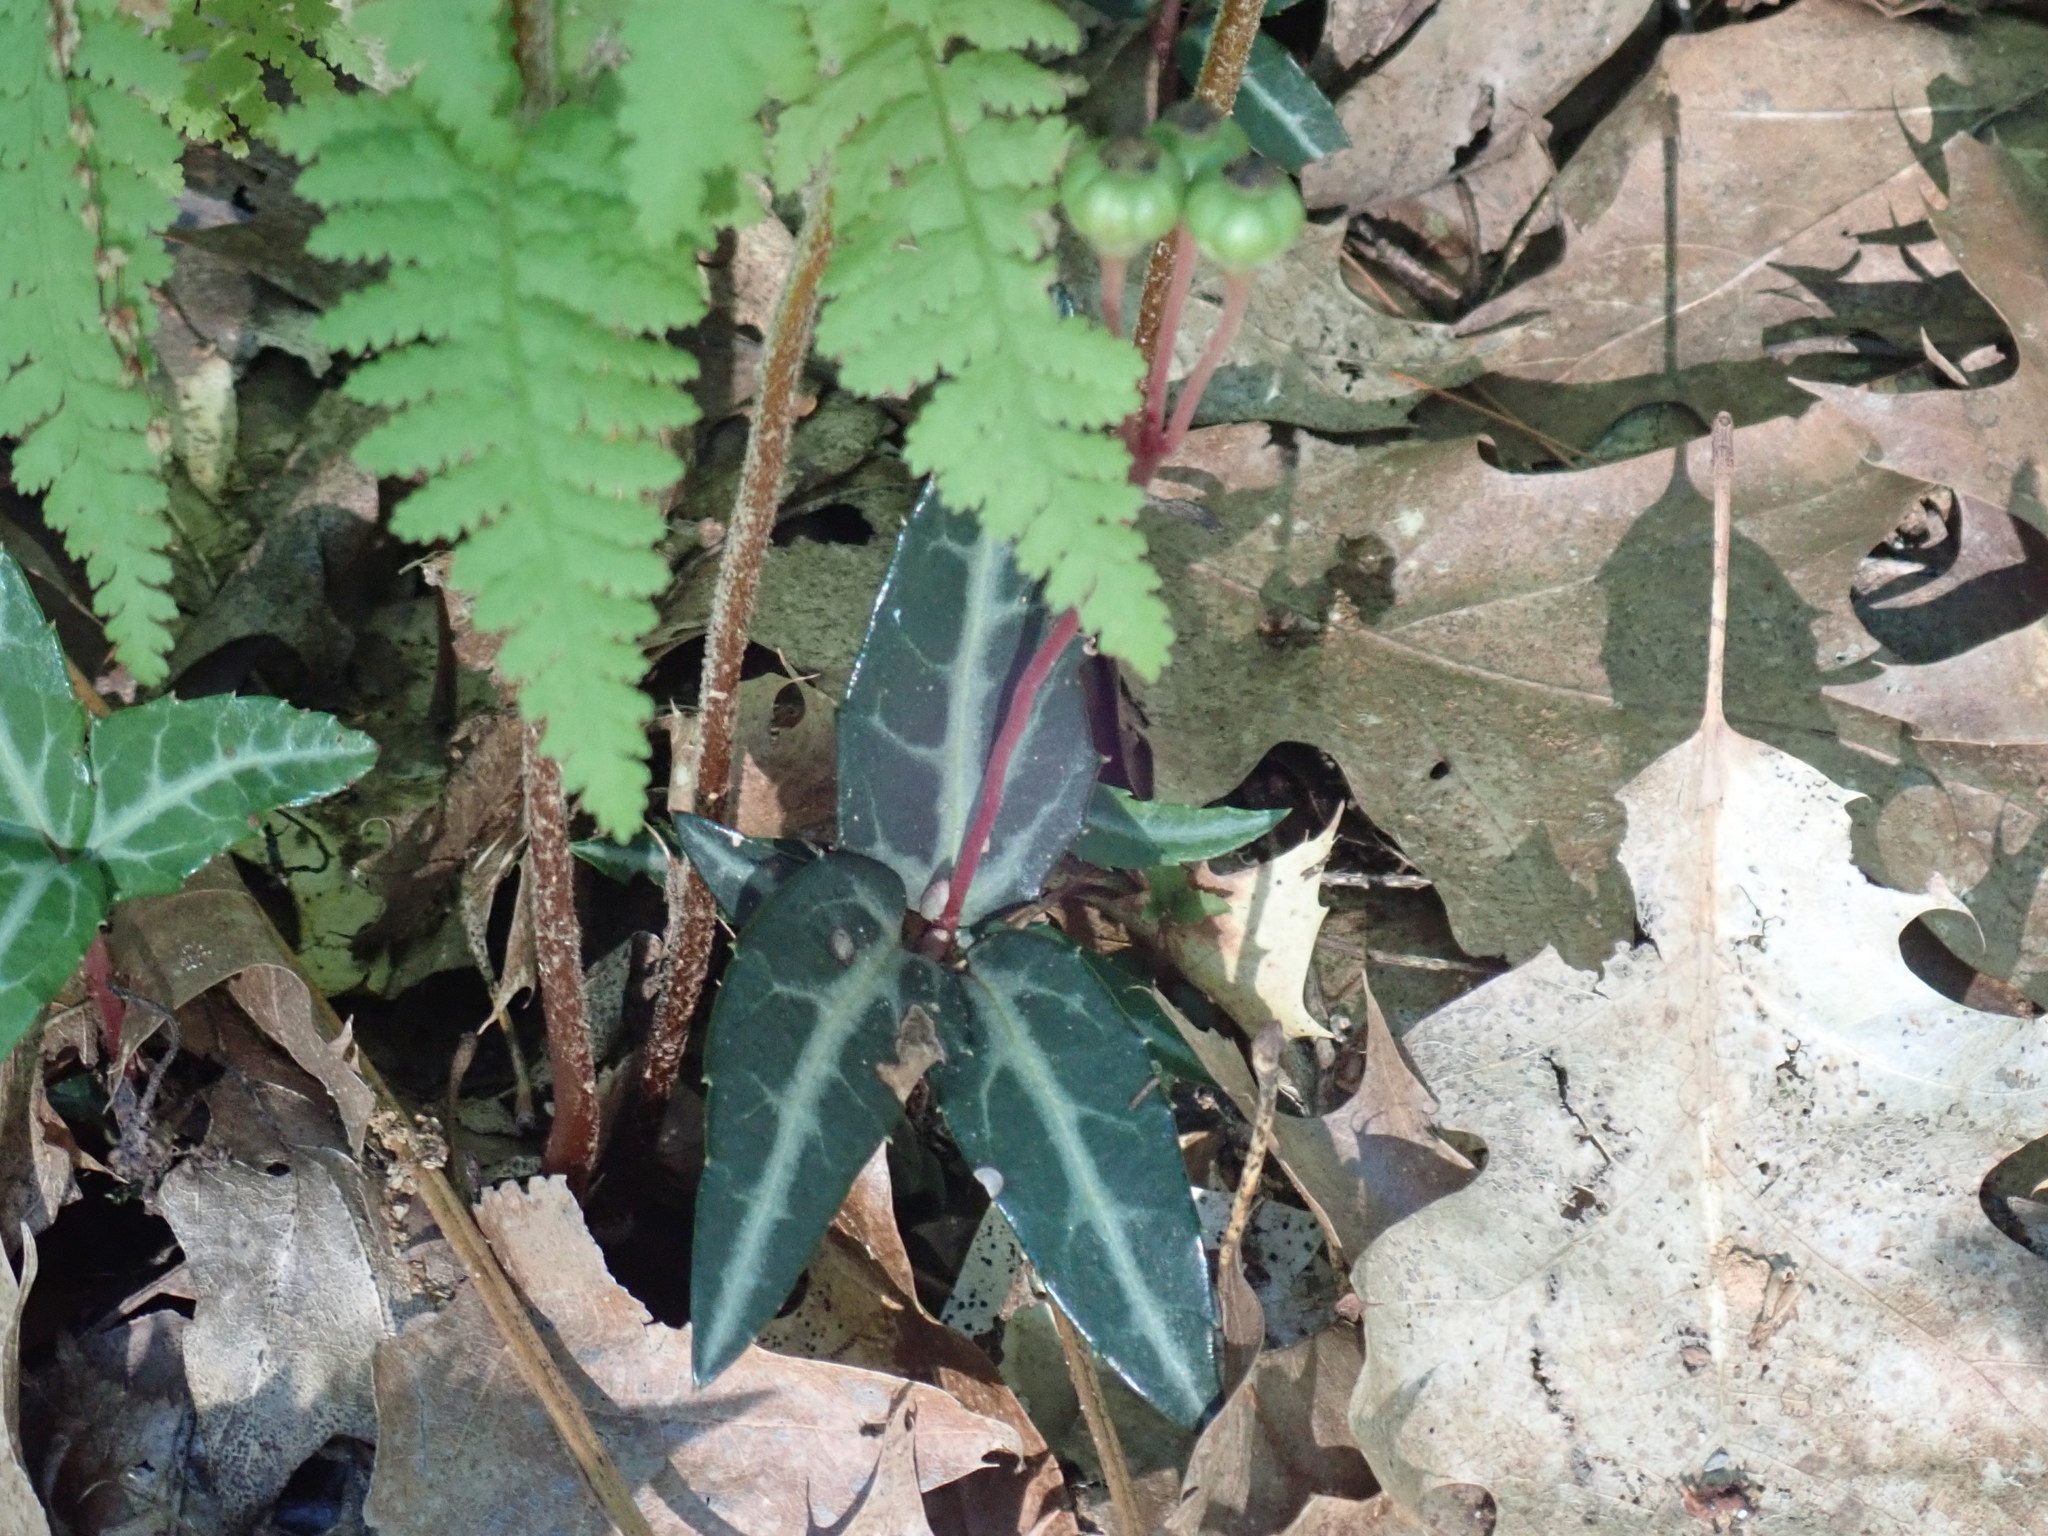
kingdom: Plantae
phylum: Tracheophyta
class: Magnoliopsida
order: Ericales
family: Ericaceae
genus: Chimaphila
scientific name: Chimaphila maculata
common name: Spotted pipsissewa
